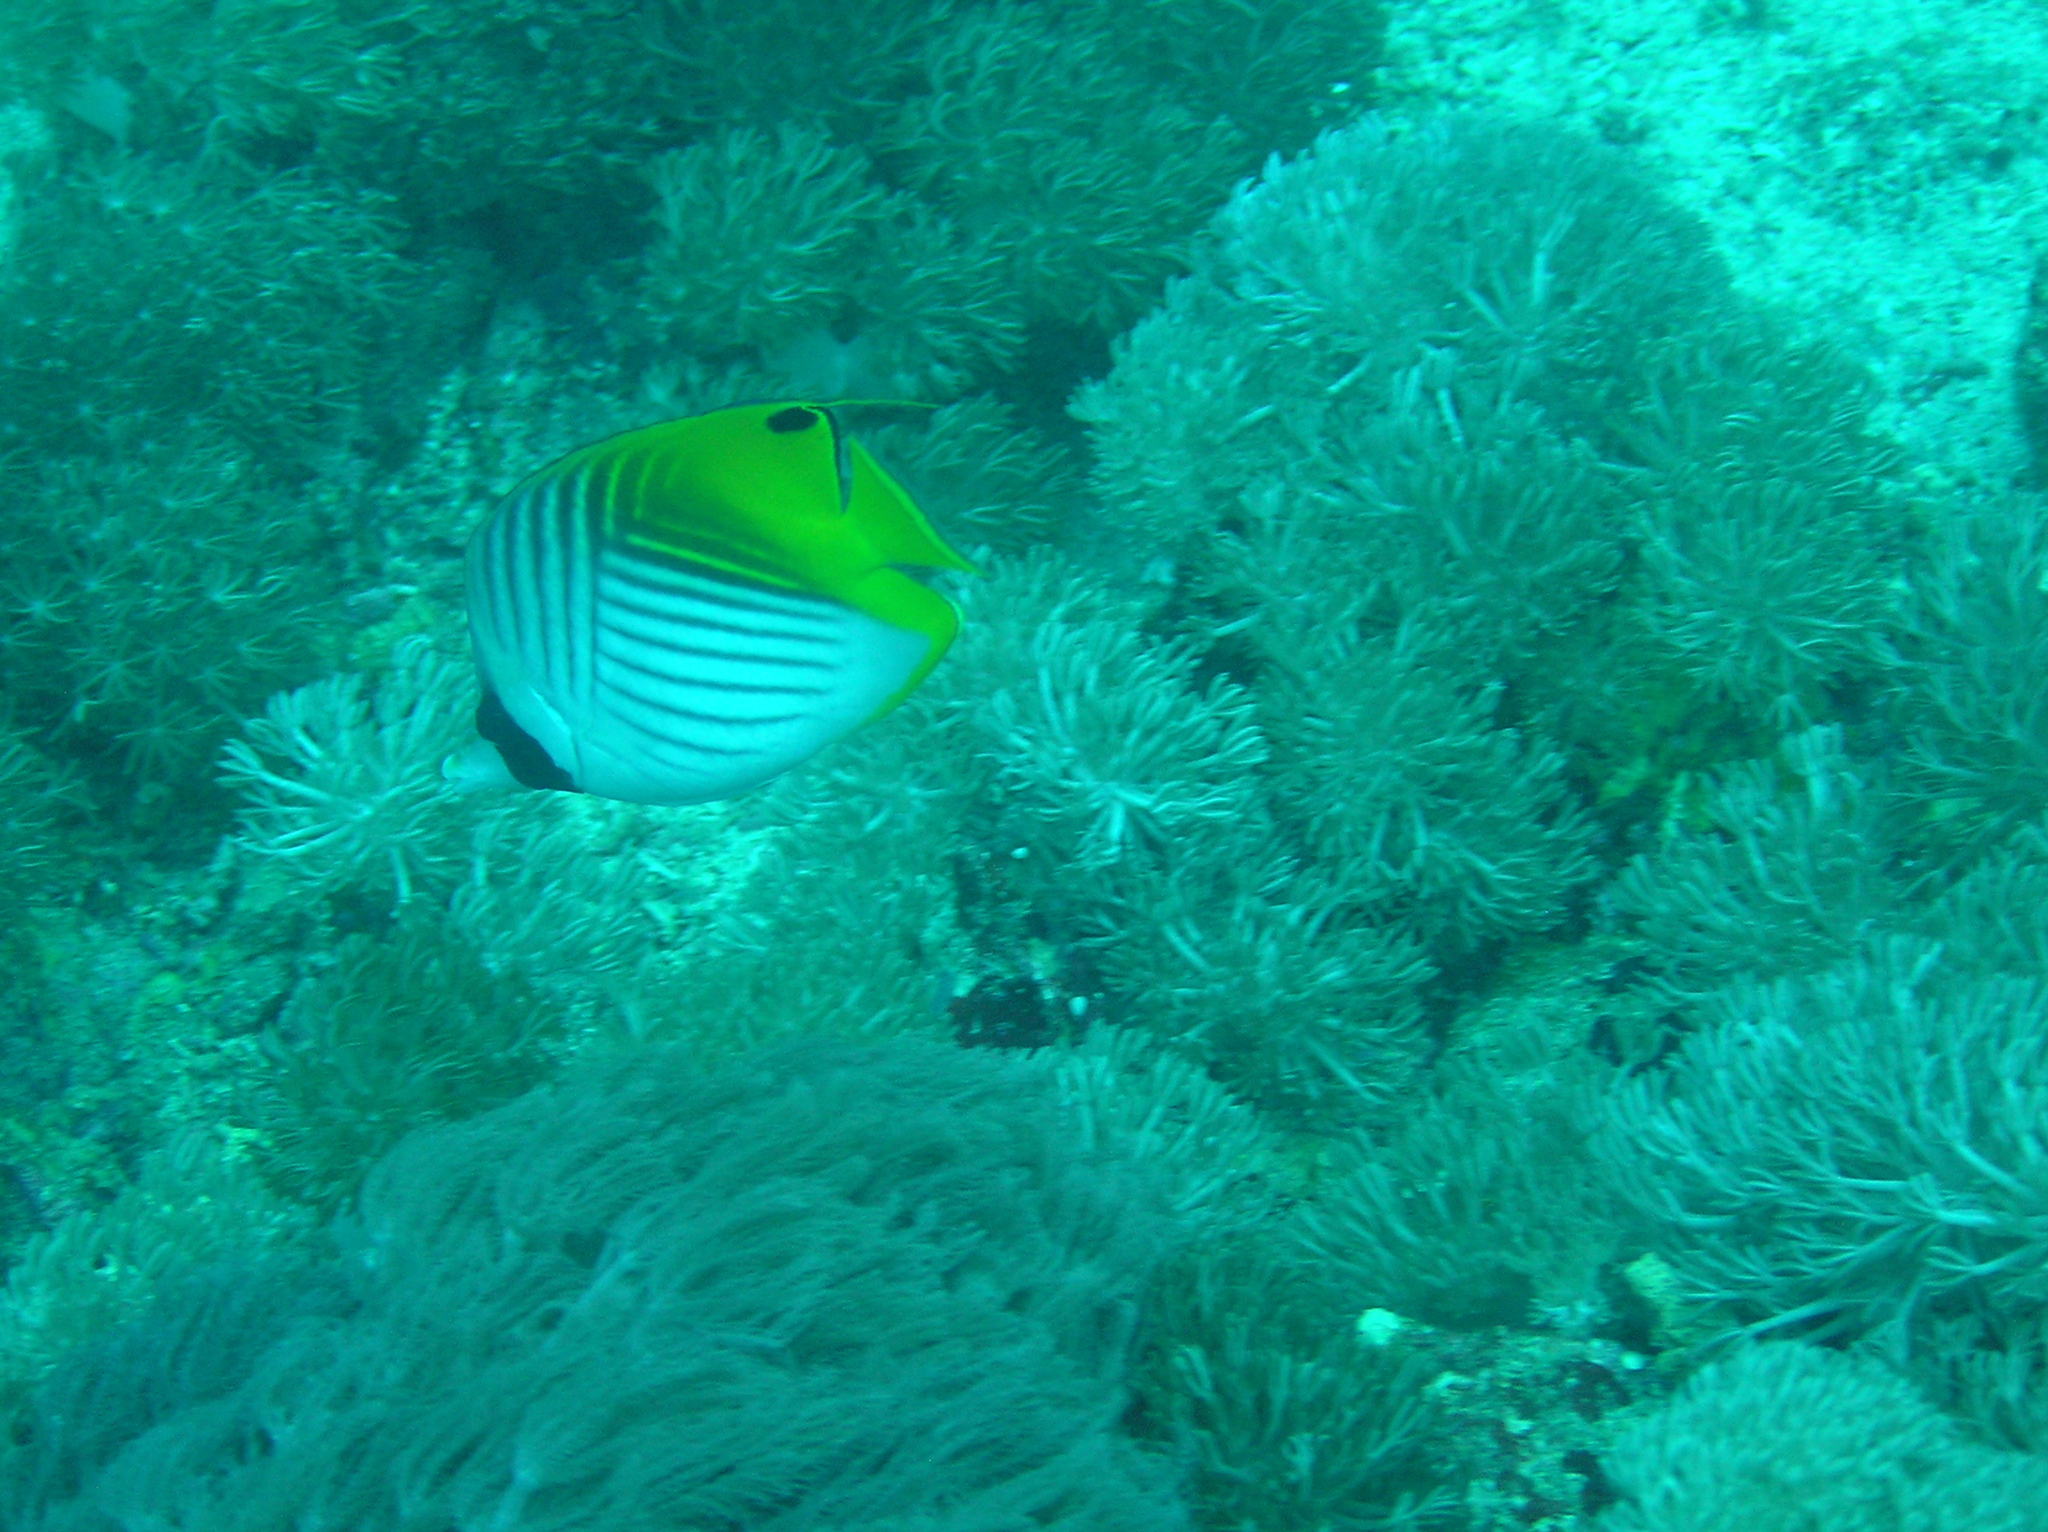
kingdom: Animalia
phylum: Chordata
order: Perciformes
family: Chaetodontidae
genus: Chaetodon
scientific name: Chaetodon auriga
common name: Threadfin butterflyfish
